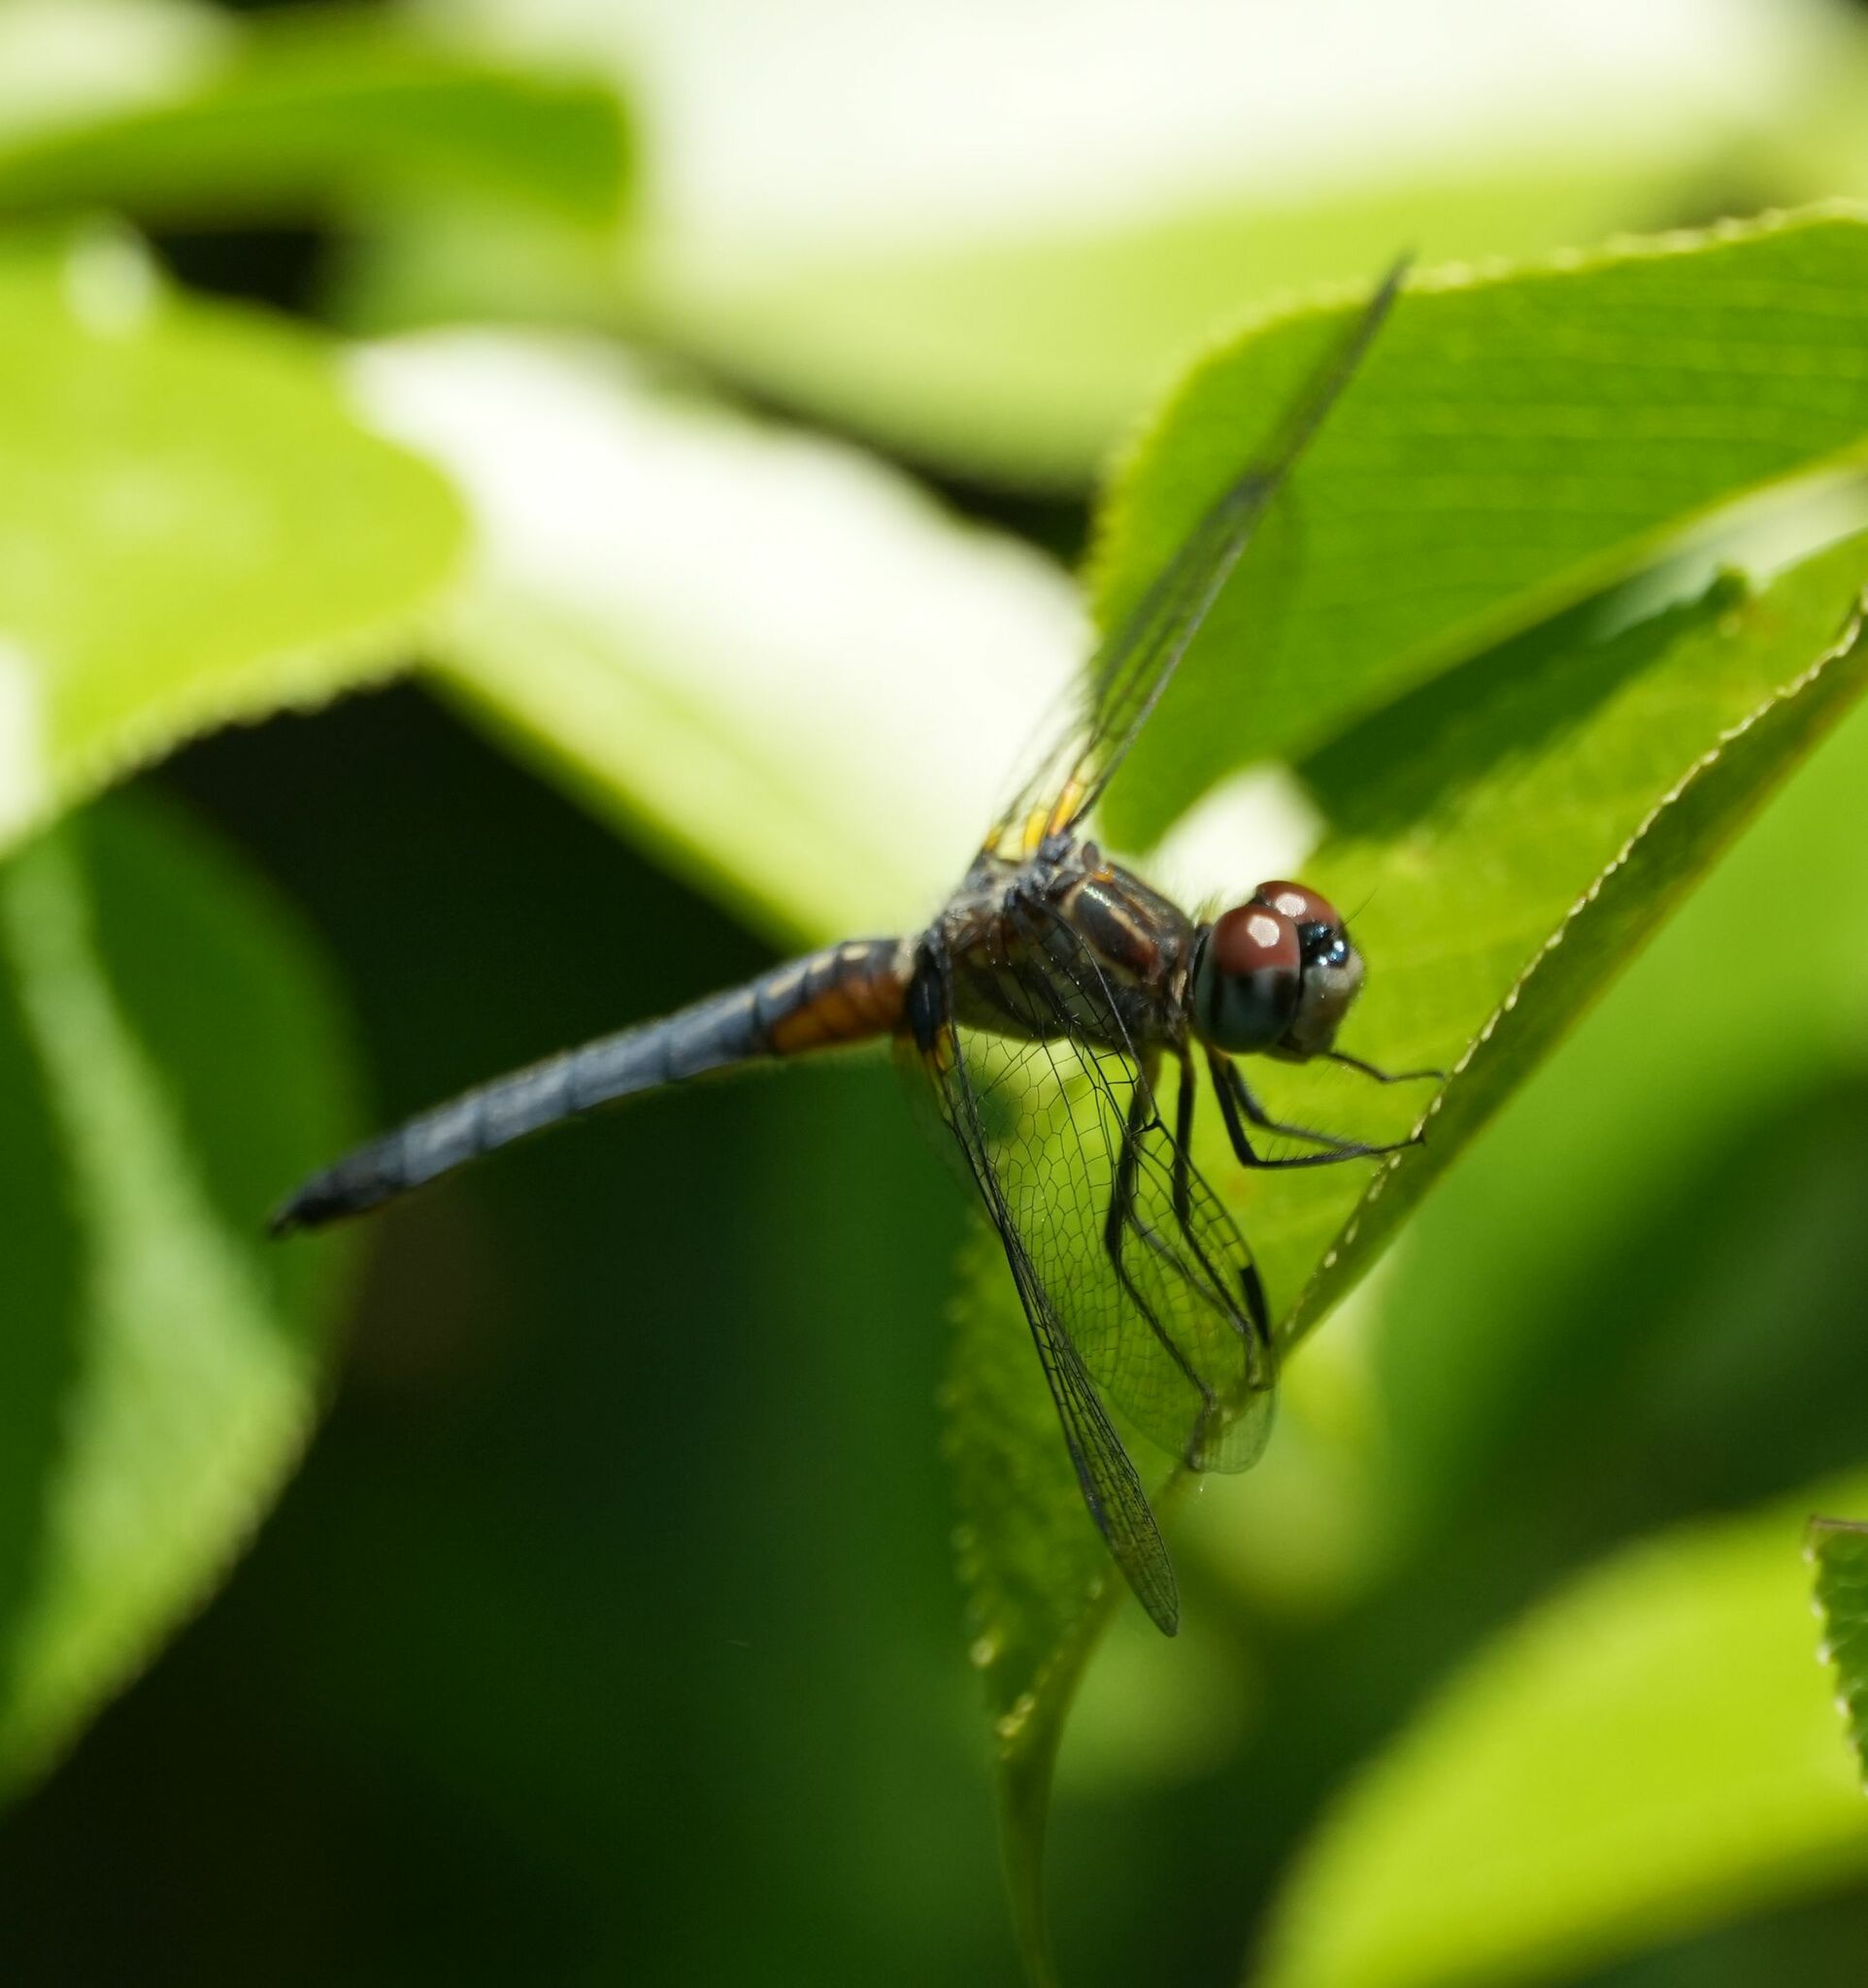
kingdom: Animalia
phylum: Arthropoda
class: Insecta
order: Odonata
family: Libellulidae
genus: Pachydiplax
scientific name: Pachydiplax longipennis
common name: Blue dasher
